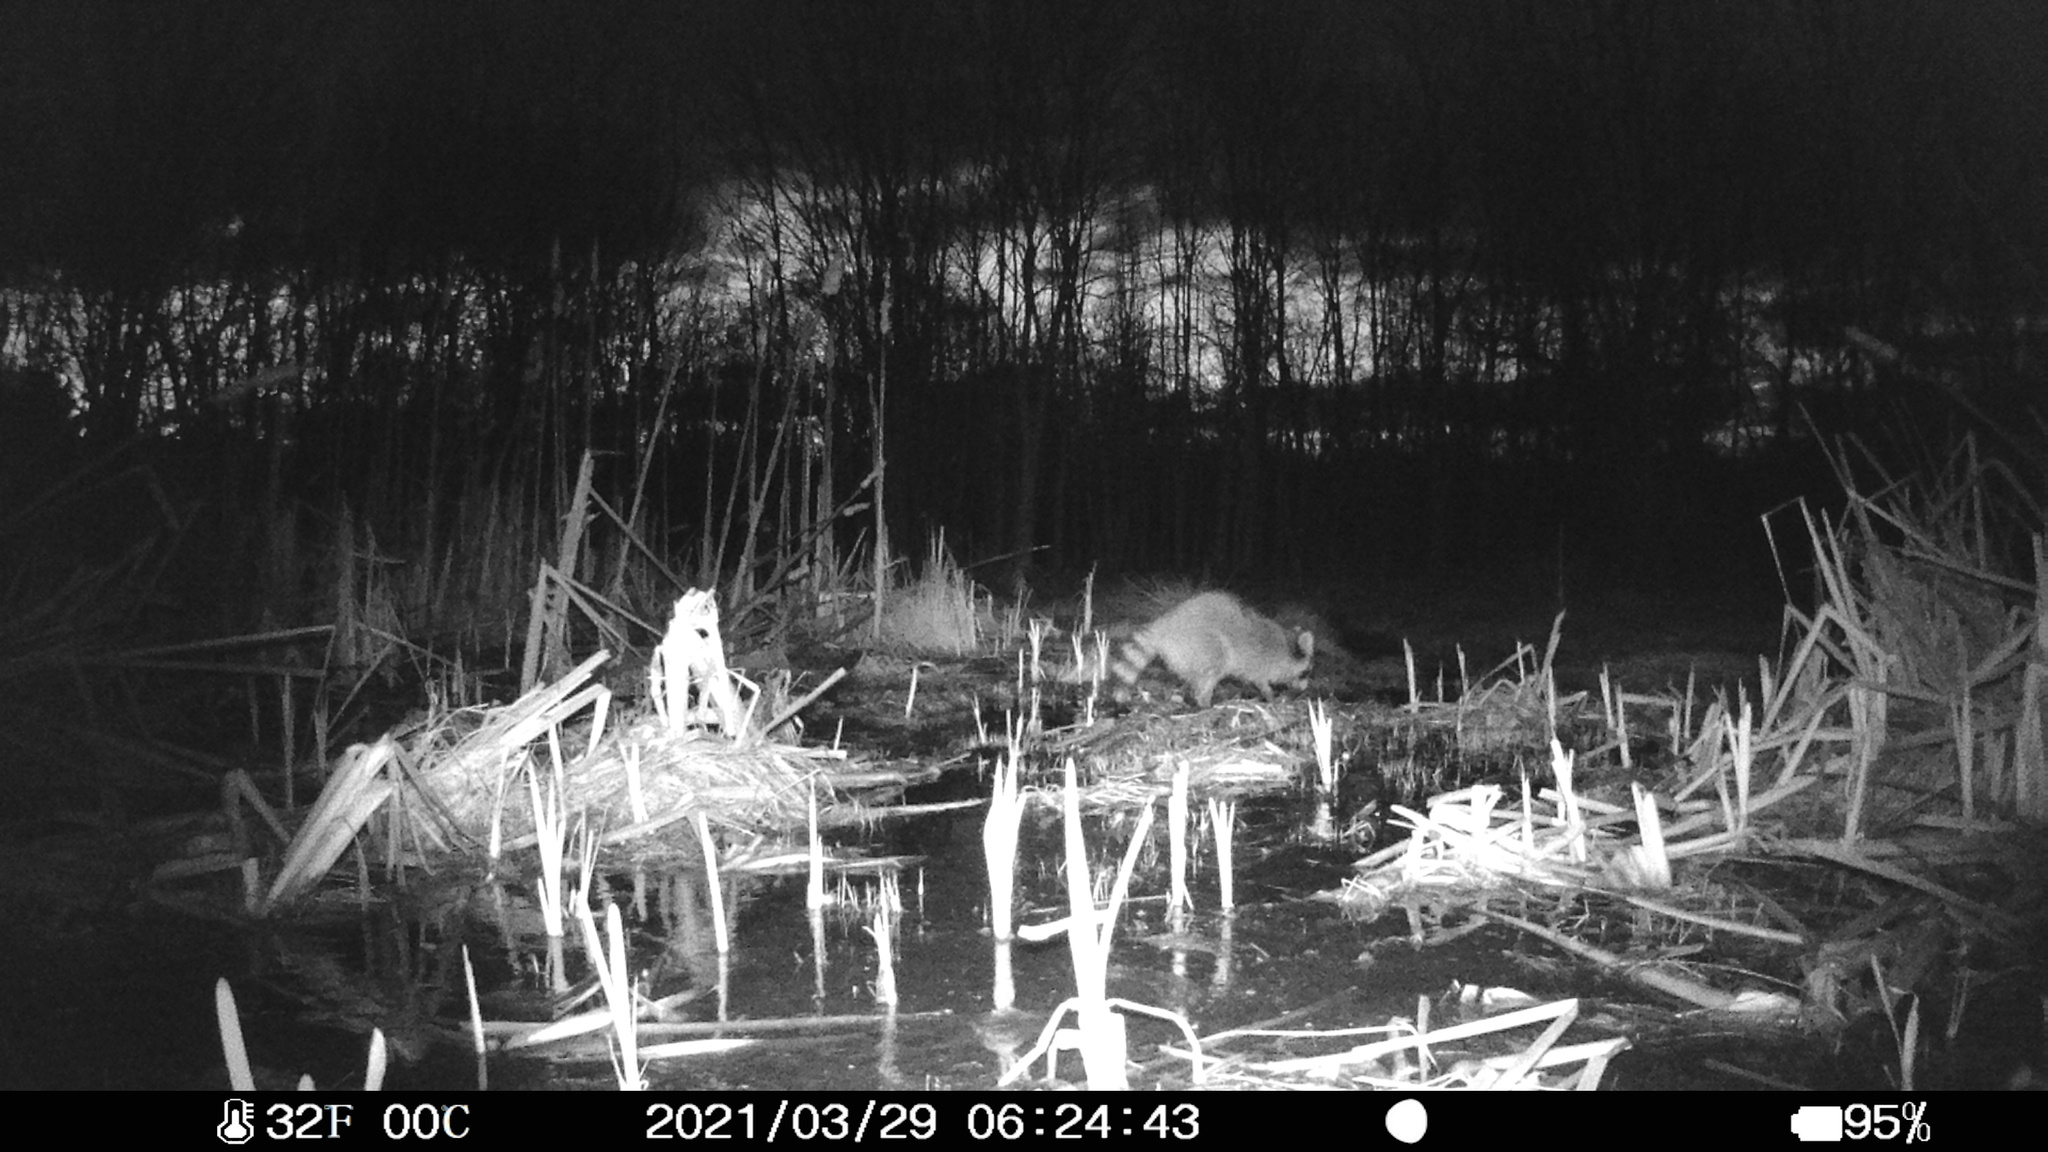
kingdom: Animalia
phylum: Chordata
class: Mammalia
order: Carnivora
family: Procyonidae
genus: Procyon
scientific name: Procyon lotor
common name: Raccoon
